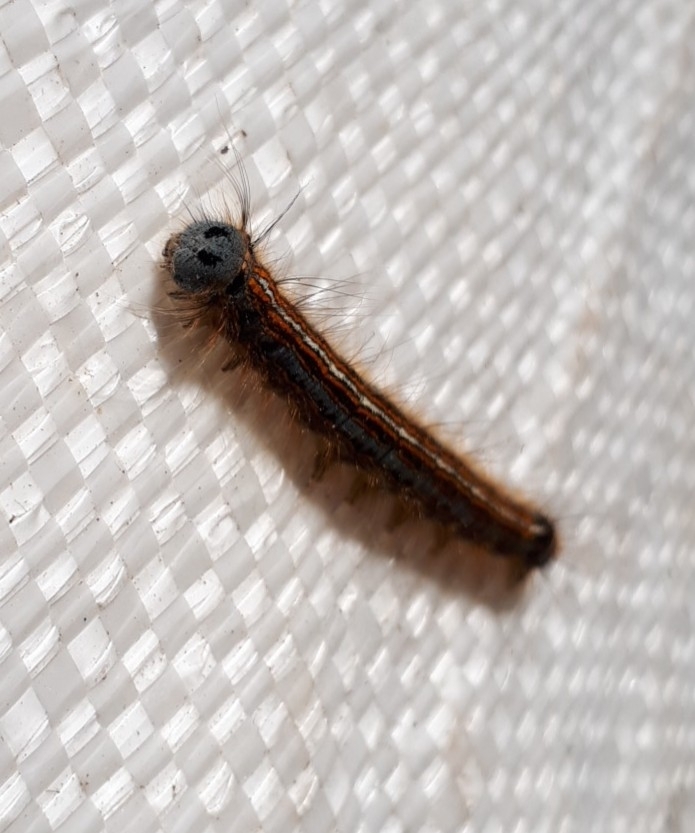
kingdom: Animalia
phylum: Arthropoda
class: Insecta
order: Lepidoptera
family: Lasiocampidae
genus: Malacosoma
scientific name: Malacosoma neustria
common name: The lackey
